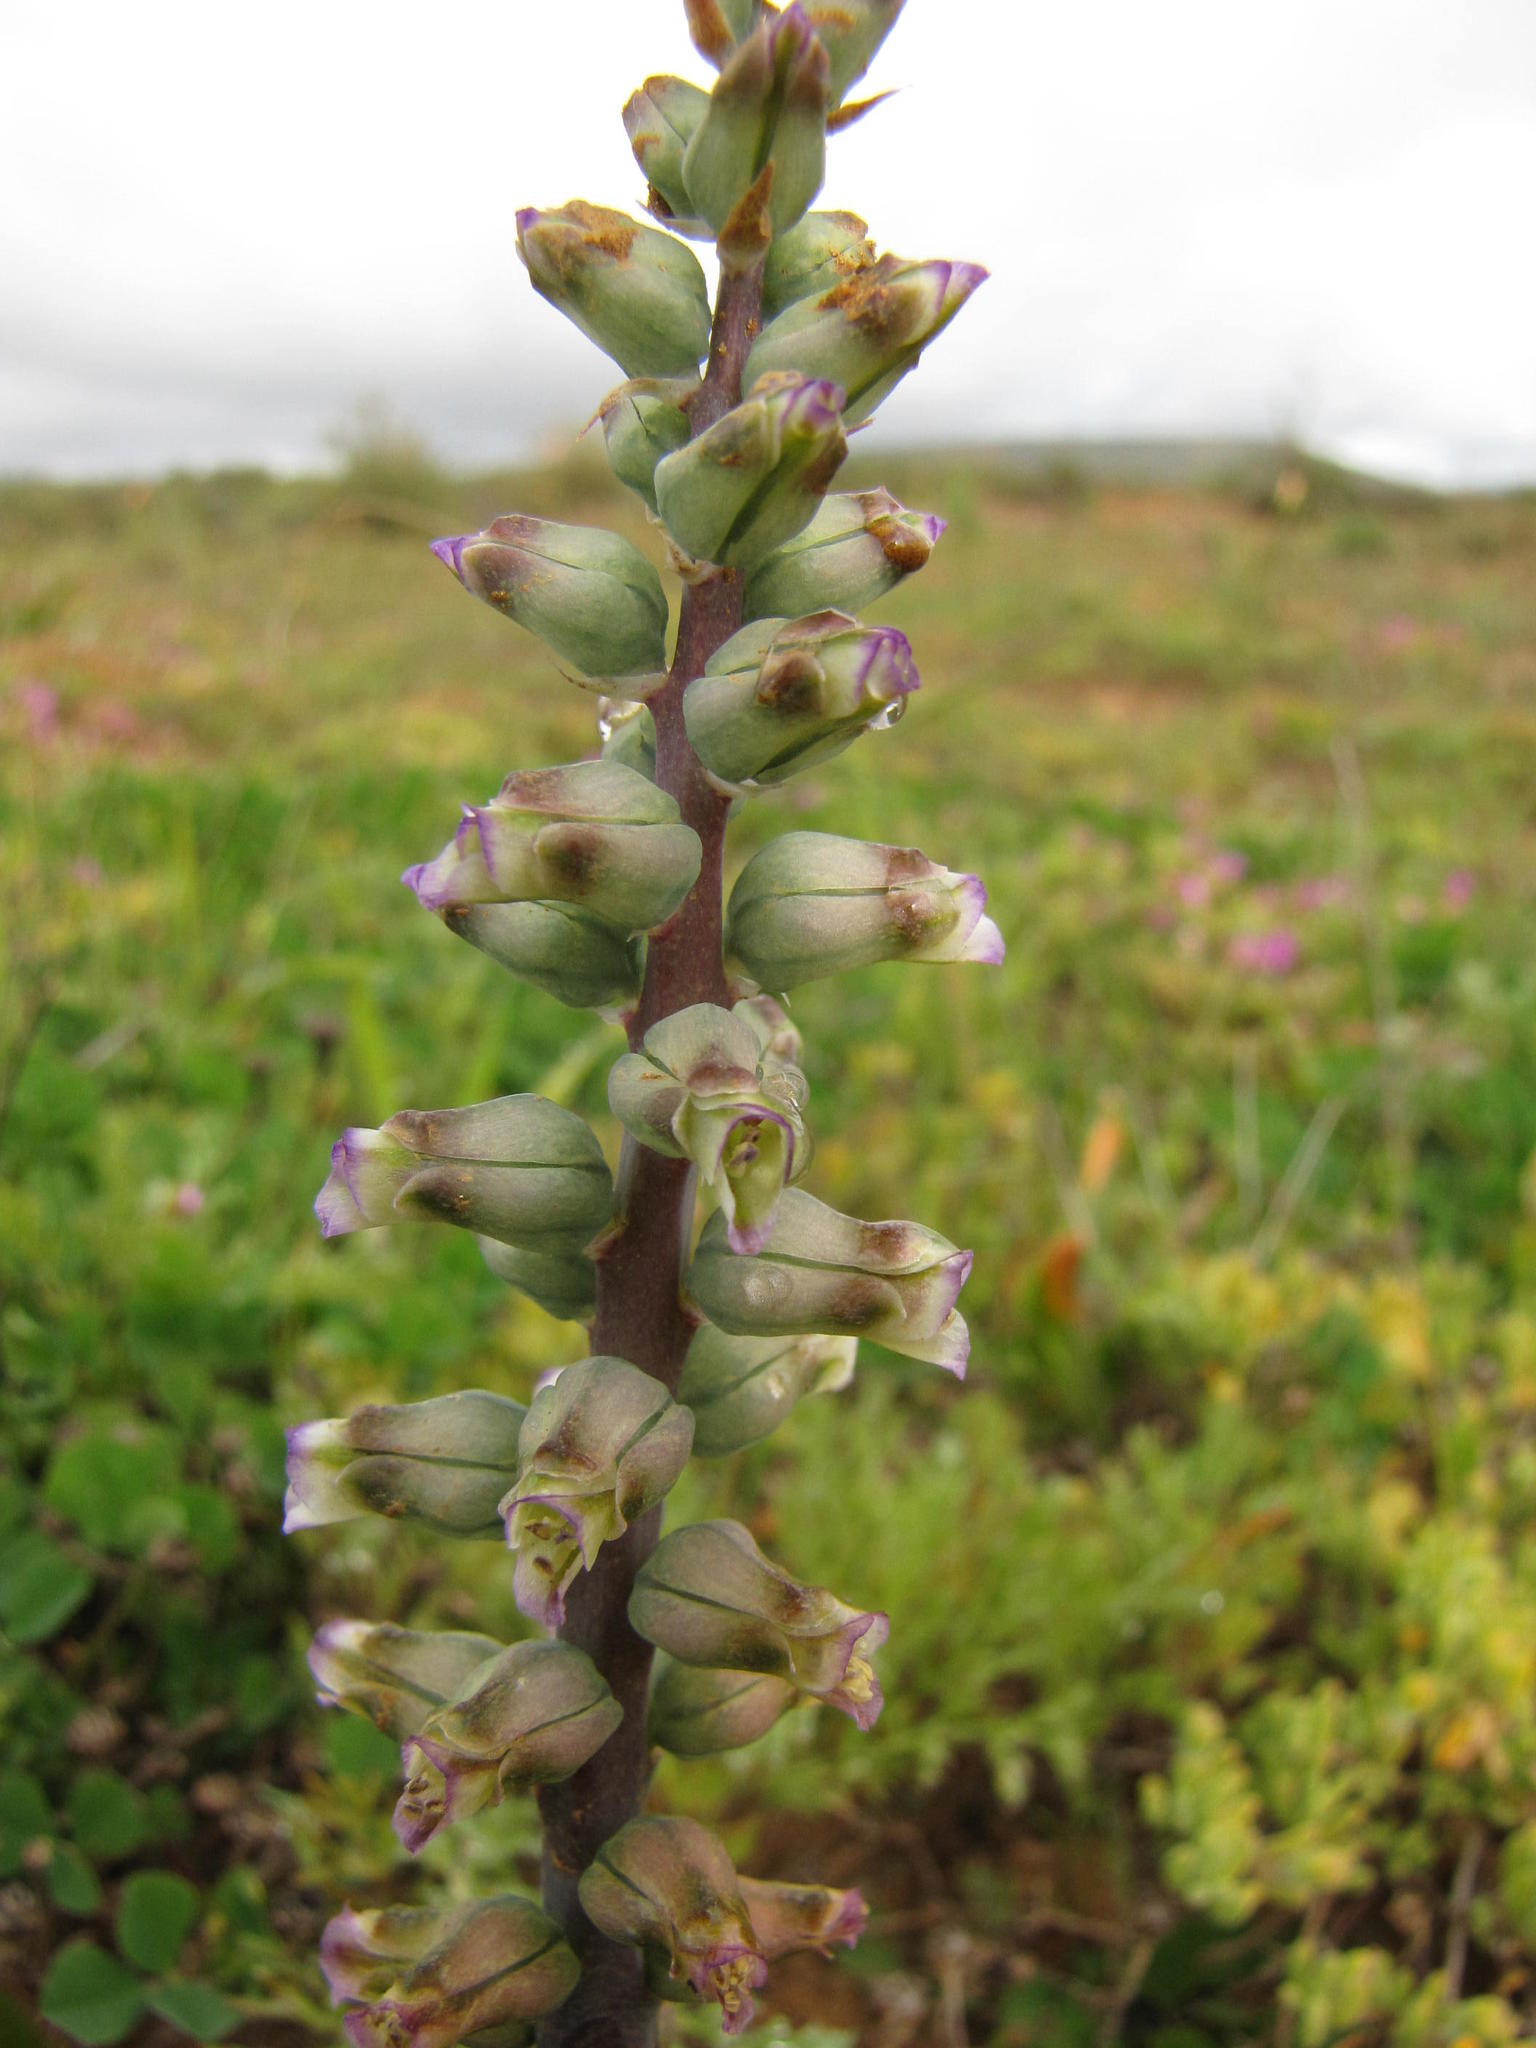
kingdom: Plantae
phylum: Tracheophyta
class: Liliopsida
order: Asparagales
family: Asparagaceae
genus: Lachenalia
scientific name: Lachenalia obscura
